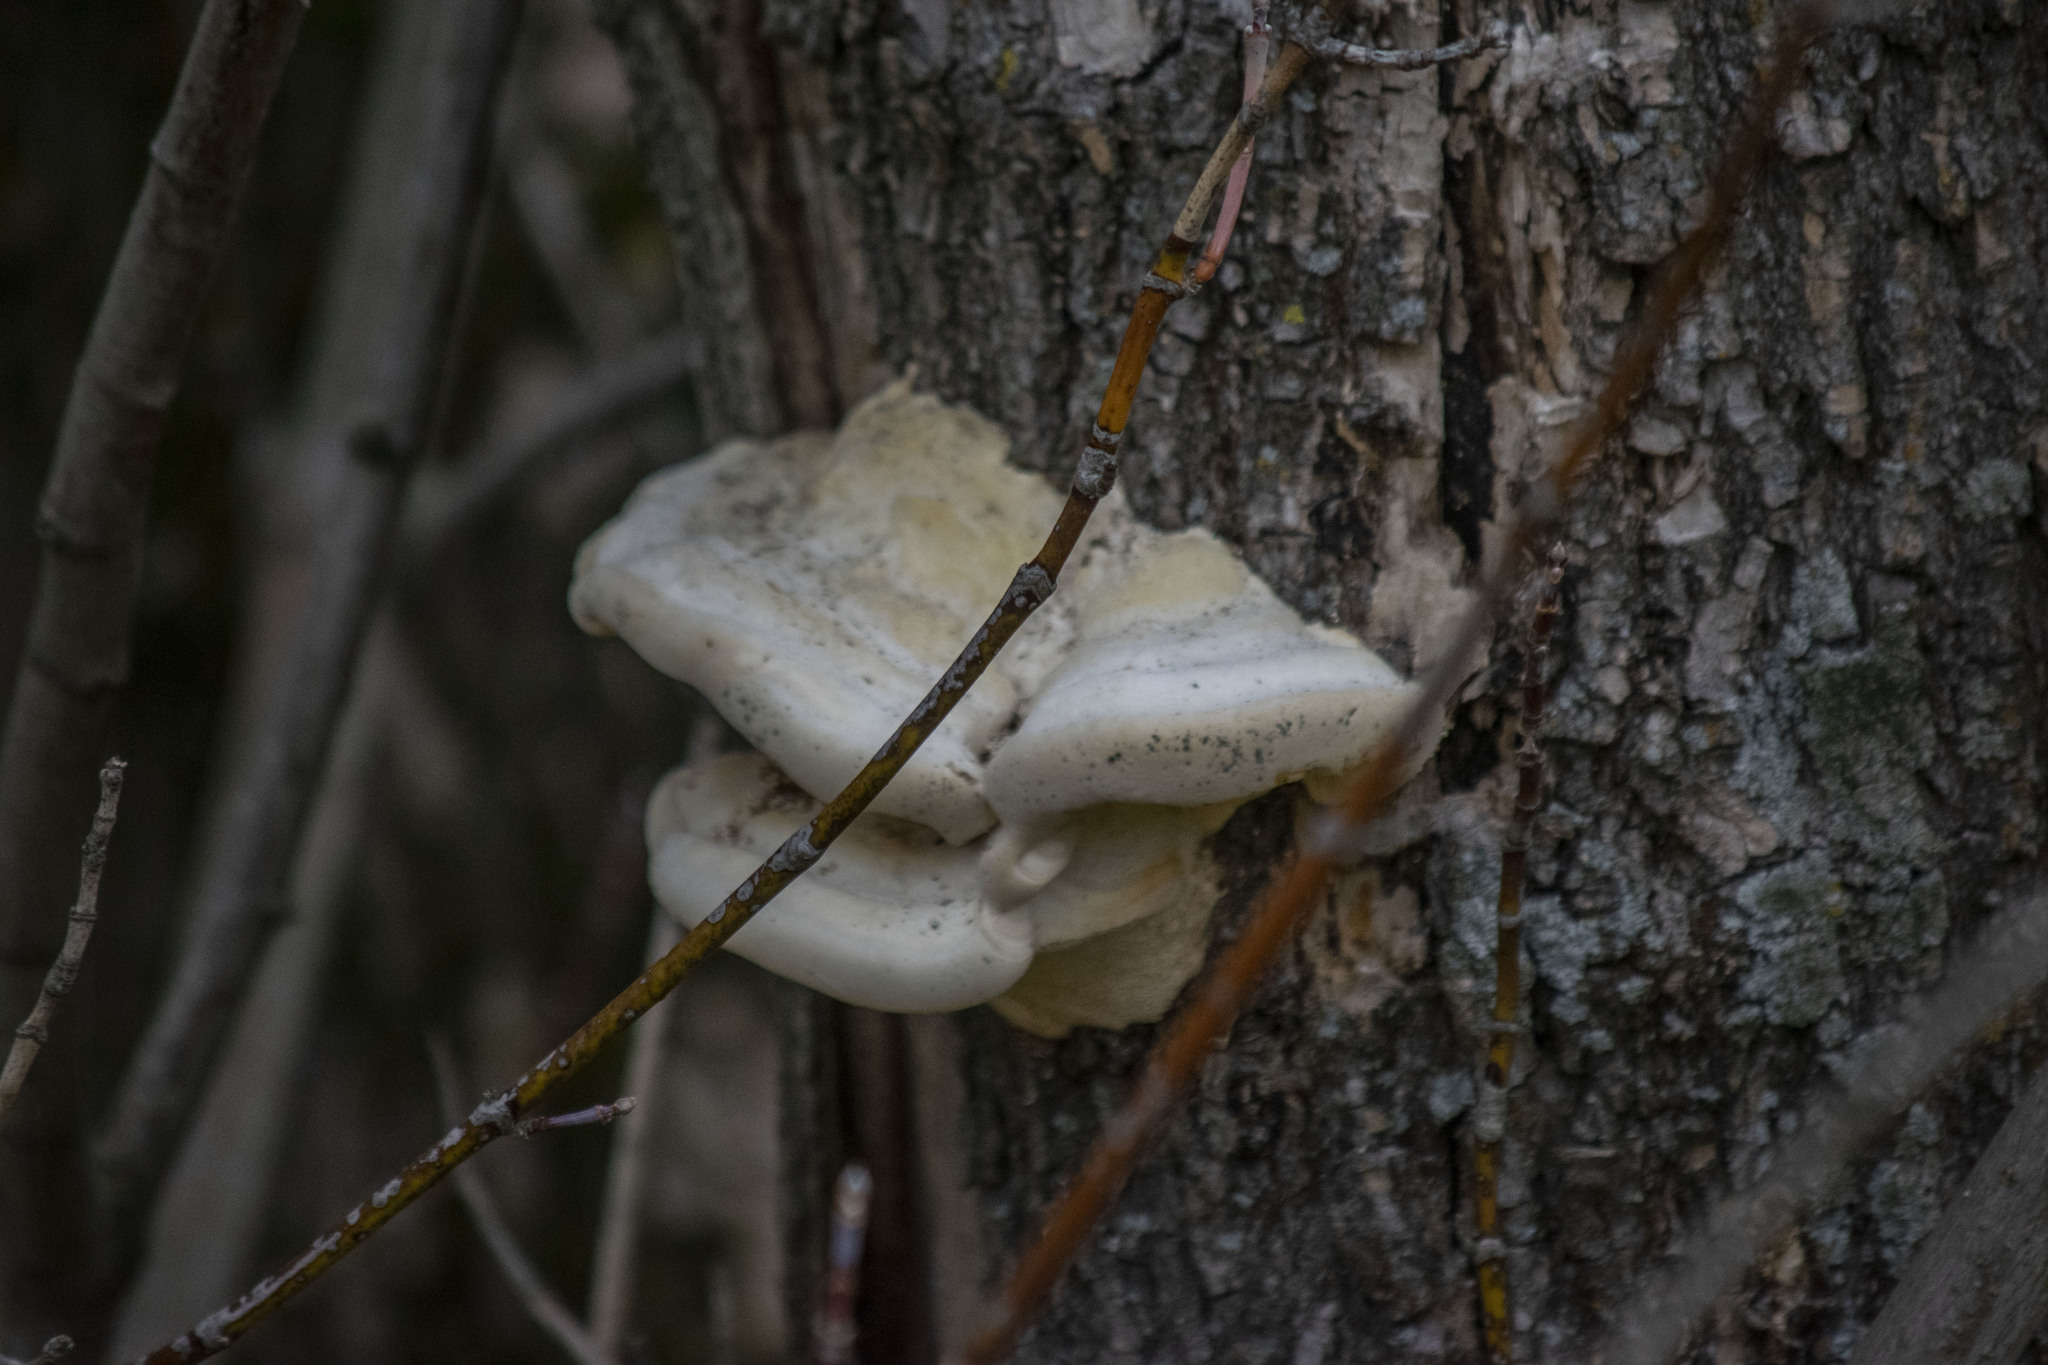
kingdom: Fungi
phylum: Basidiomycota
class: Agaricomycetes
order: Polyporales
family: Polyporaceae
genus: Trametes
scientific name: Trametes suaveolens
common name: Fragrant bracket
